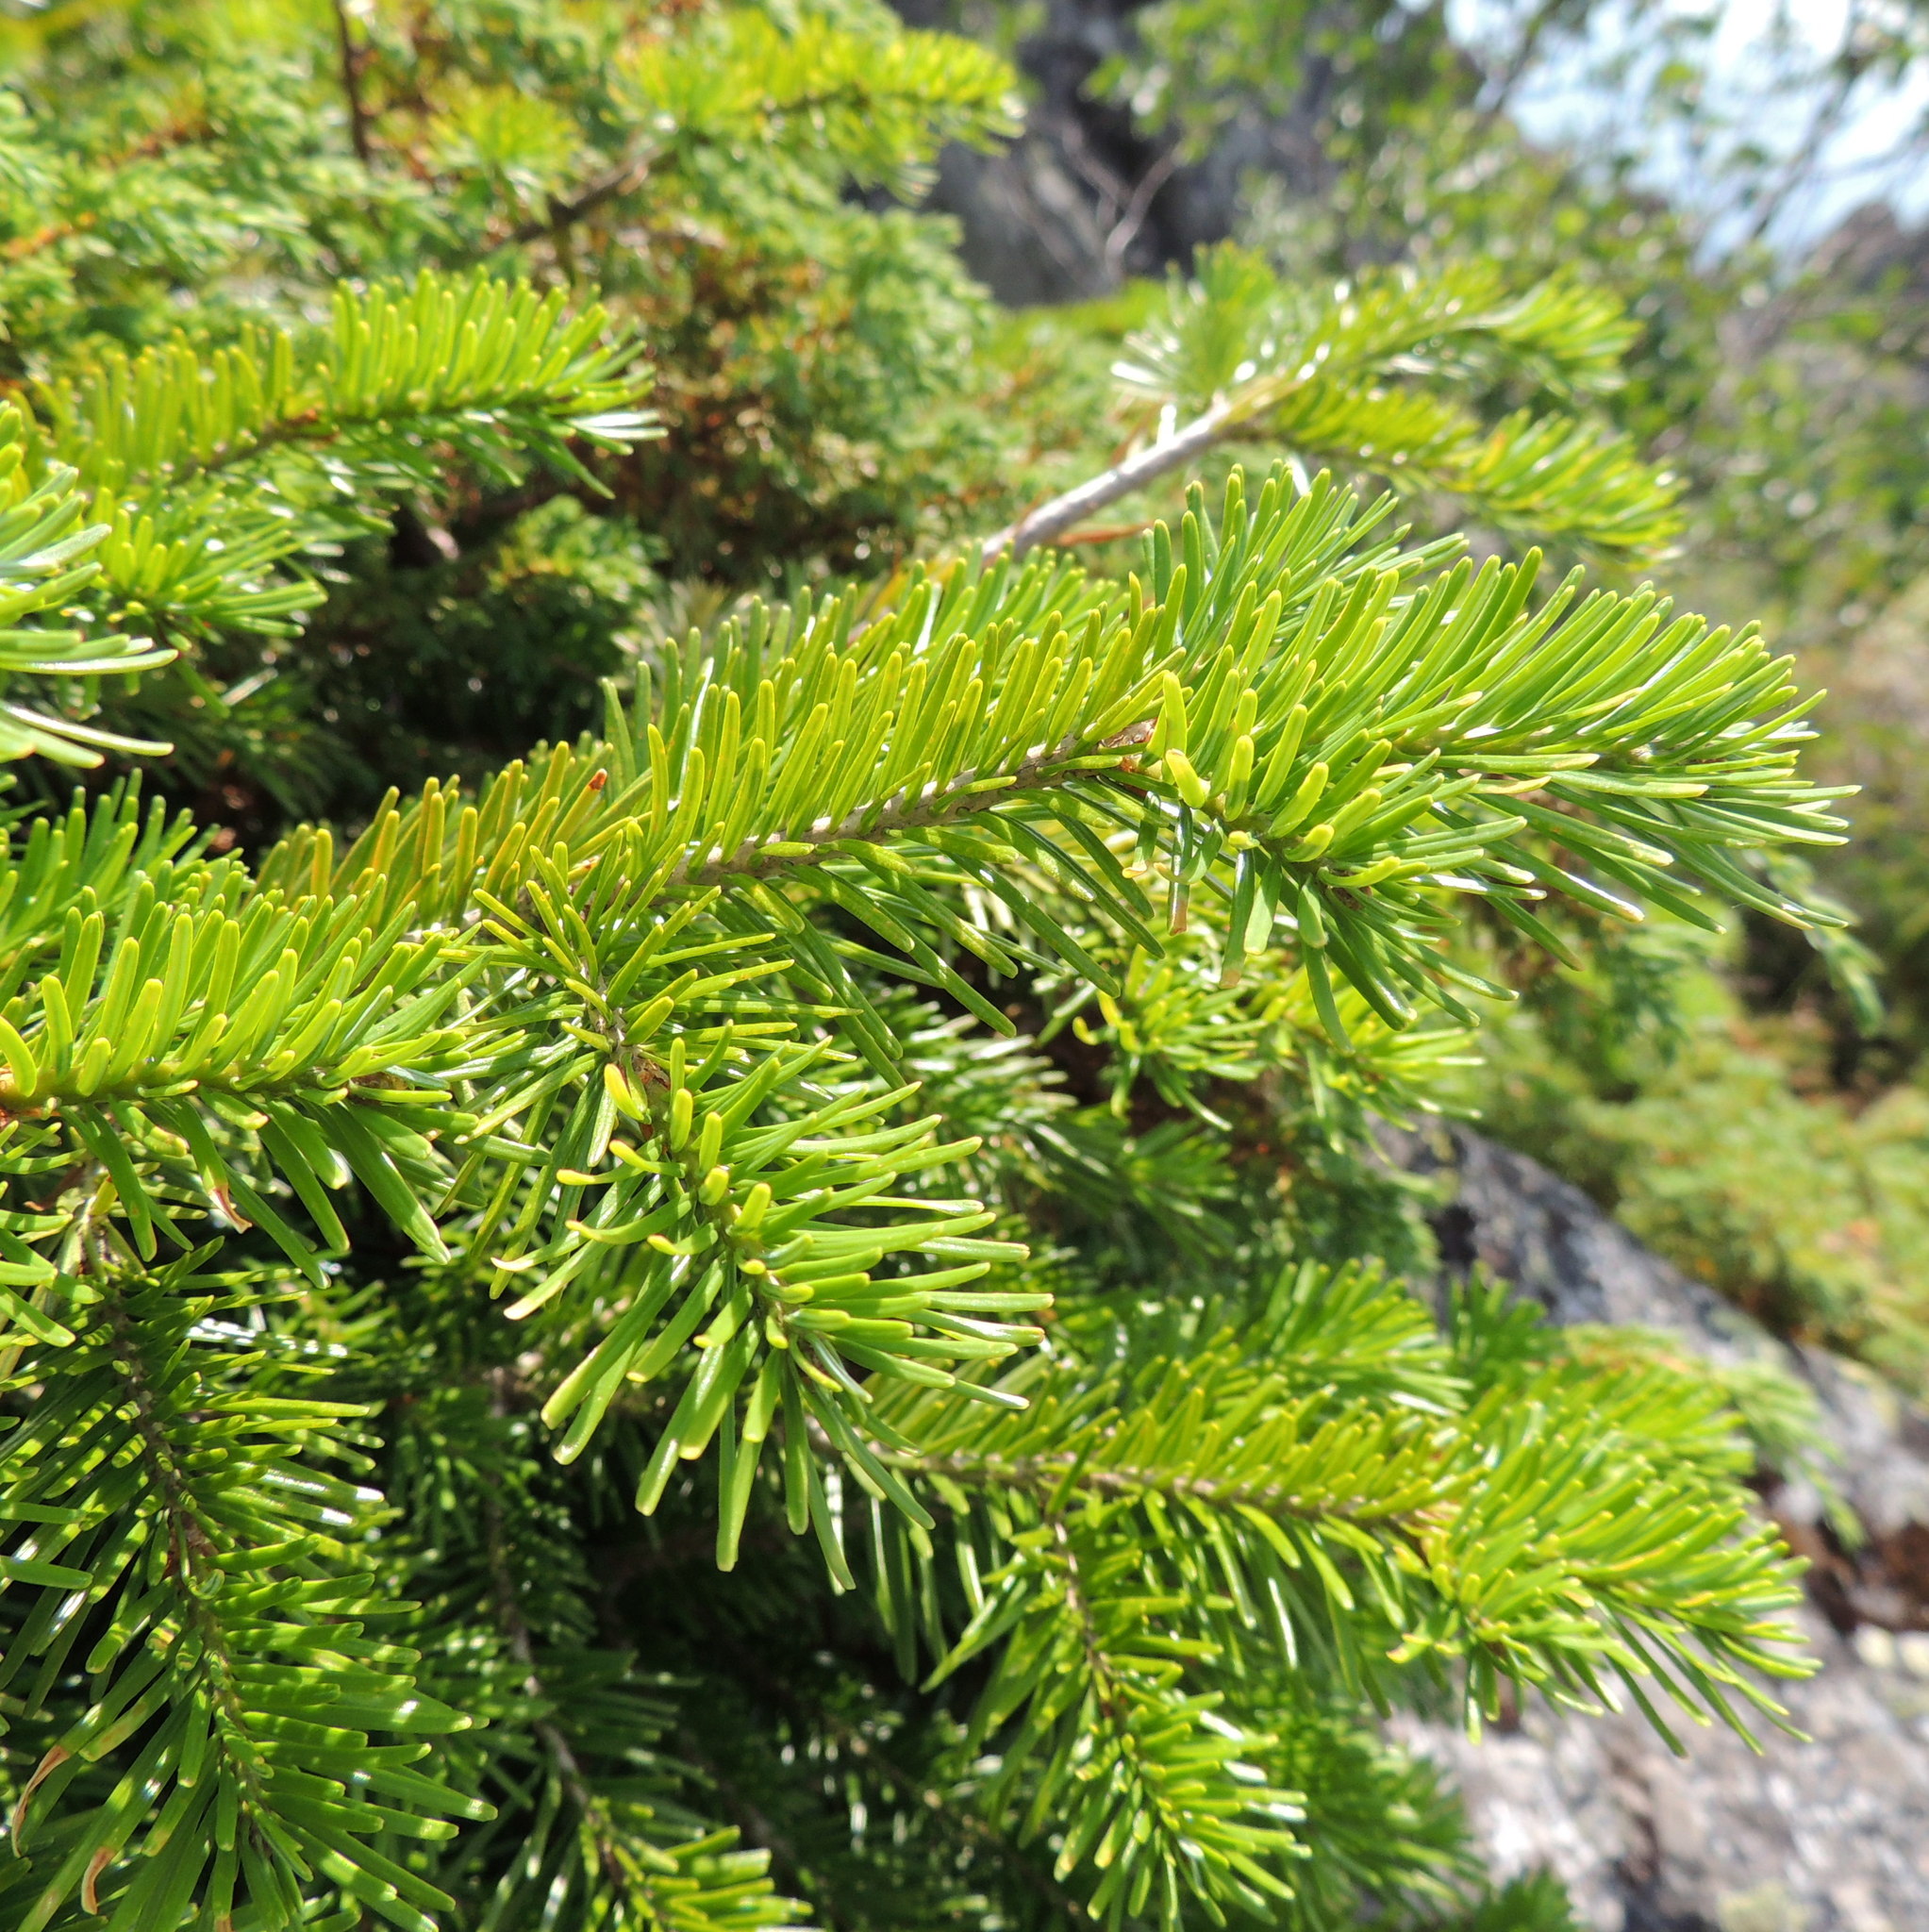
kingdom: Plantae
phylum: Tracheophyta
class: Pinopsida
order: Pinales
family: Pinaceae
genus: Abies
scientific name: Abies sibirica
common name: Siberian fir
